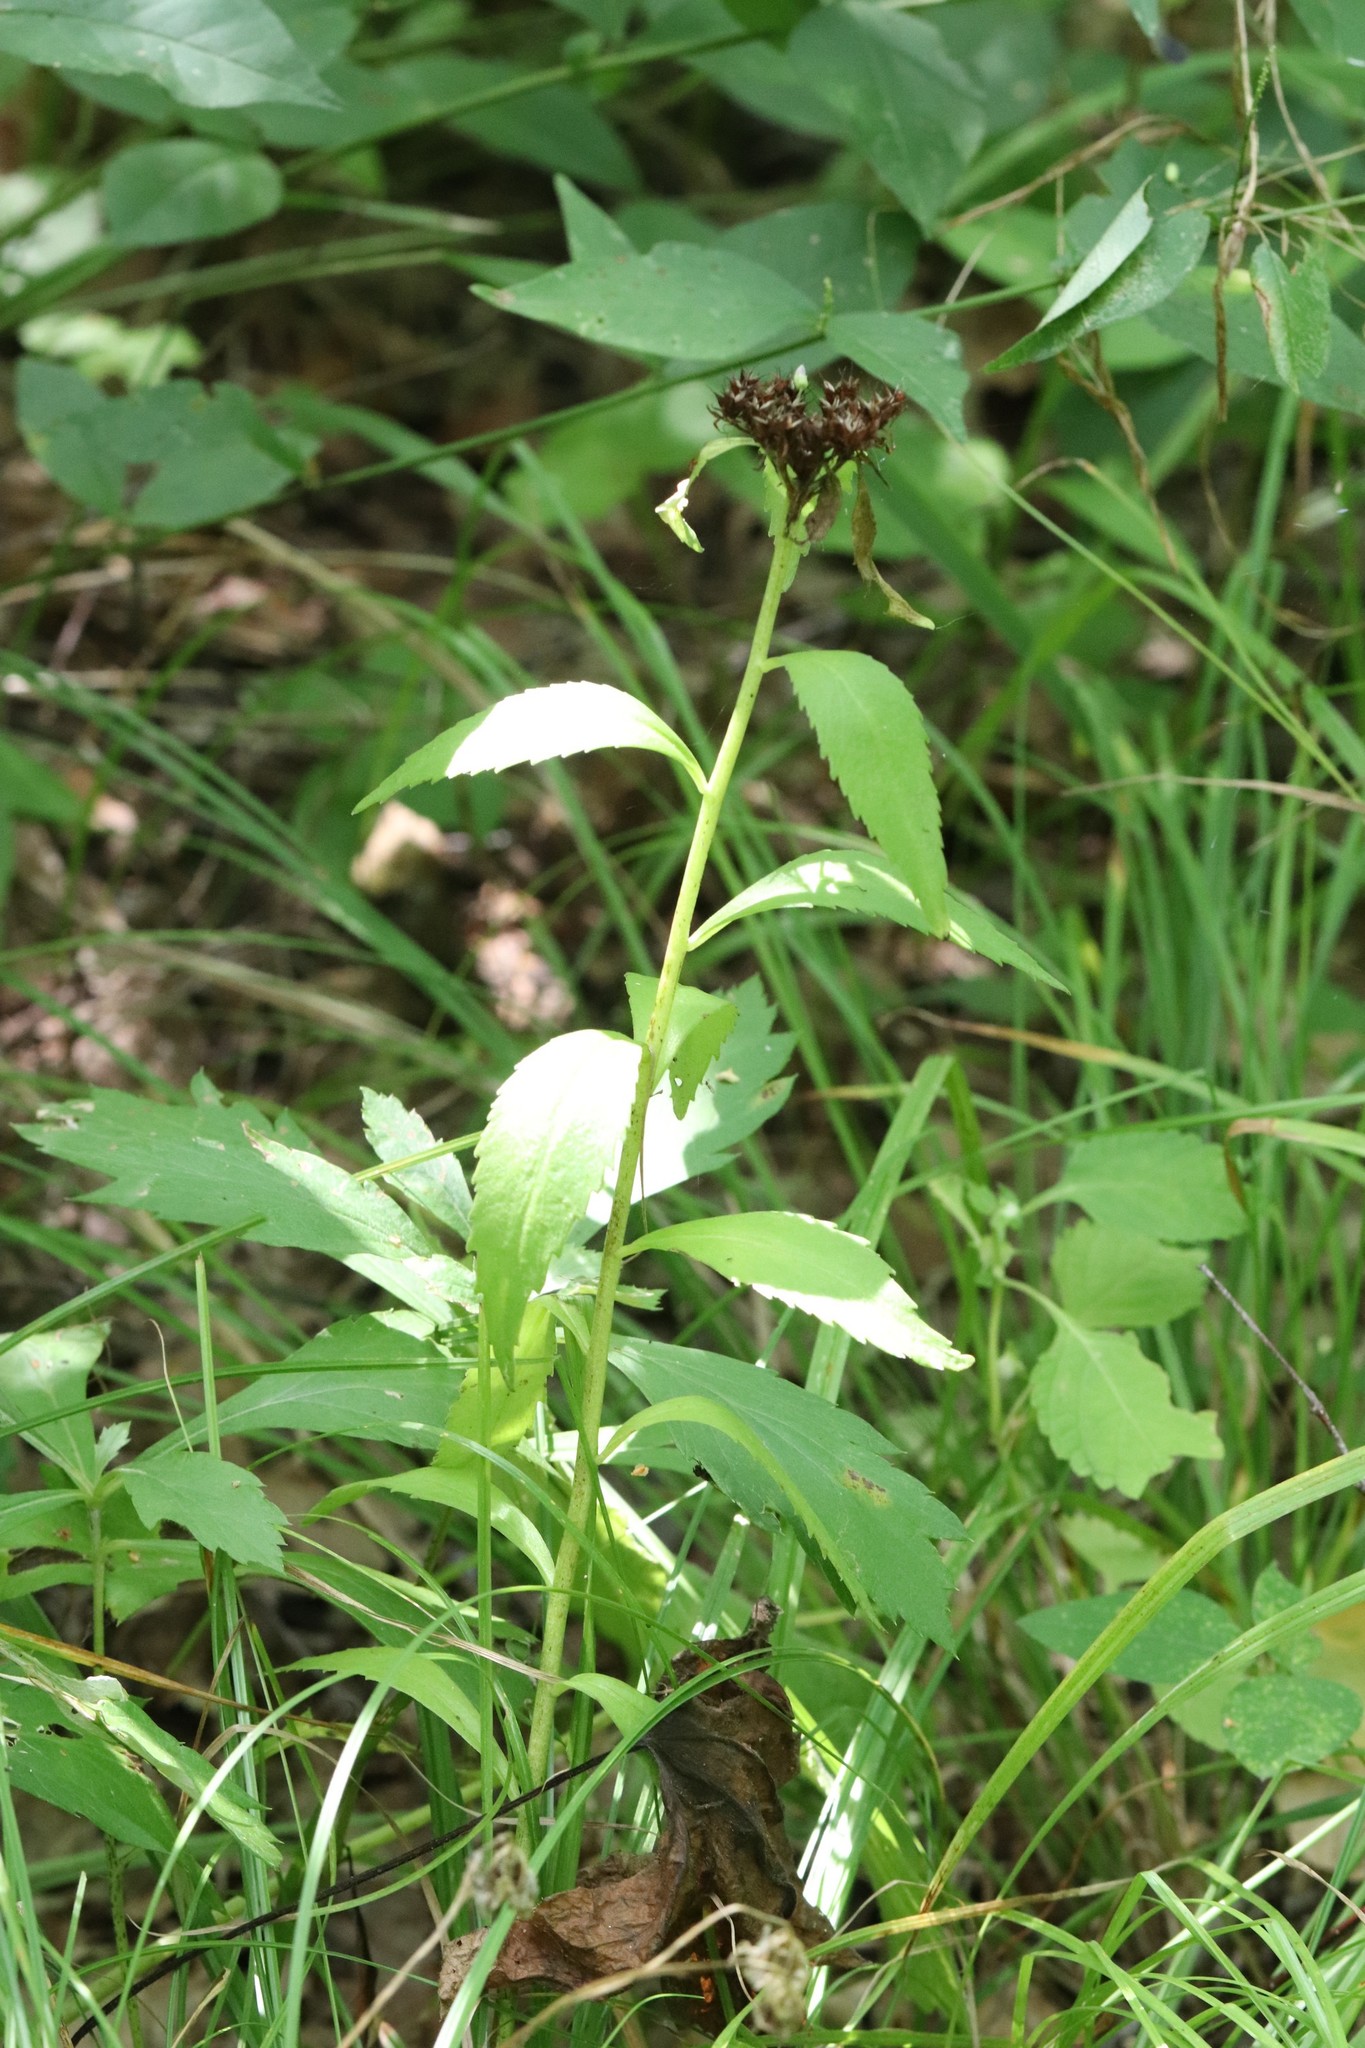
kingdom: Plantae
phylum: Tracheophyta
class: Magnoliopsida
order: Saxifragales
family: Crassulaceae
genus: Phedimus
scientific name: Phedimus aizoon
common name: Orpin aizoon
